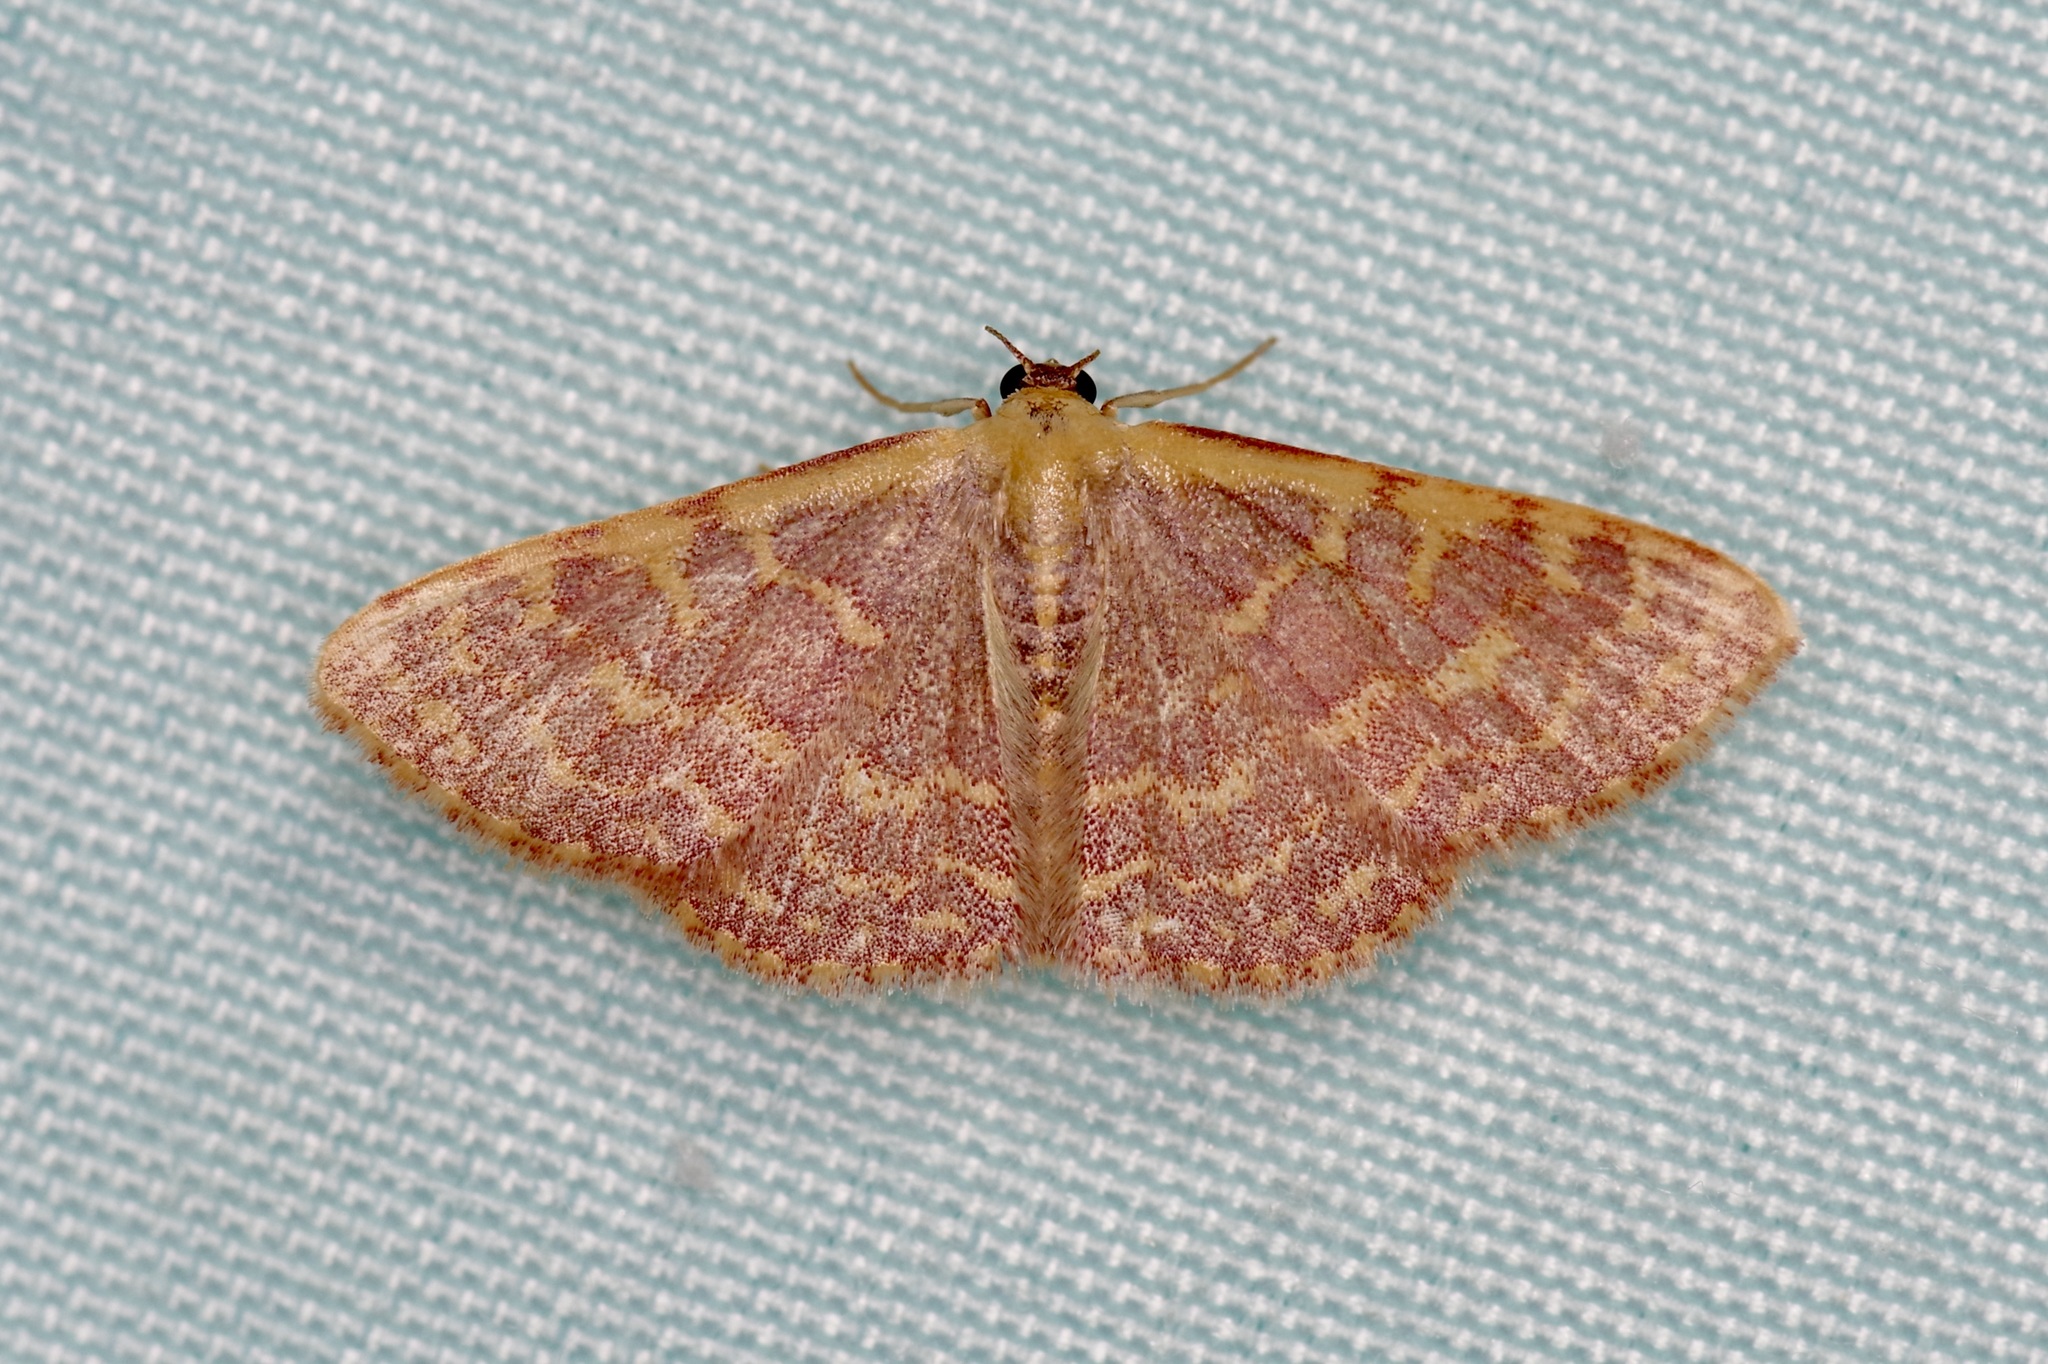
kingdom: Animalia
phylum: Arthropoda
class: Insecta
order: Lepidoptera
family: Geometridae
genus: Leptostales
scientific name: Leptostales pannaria
